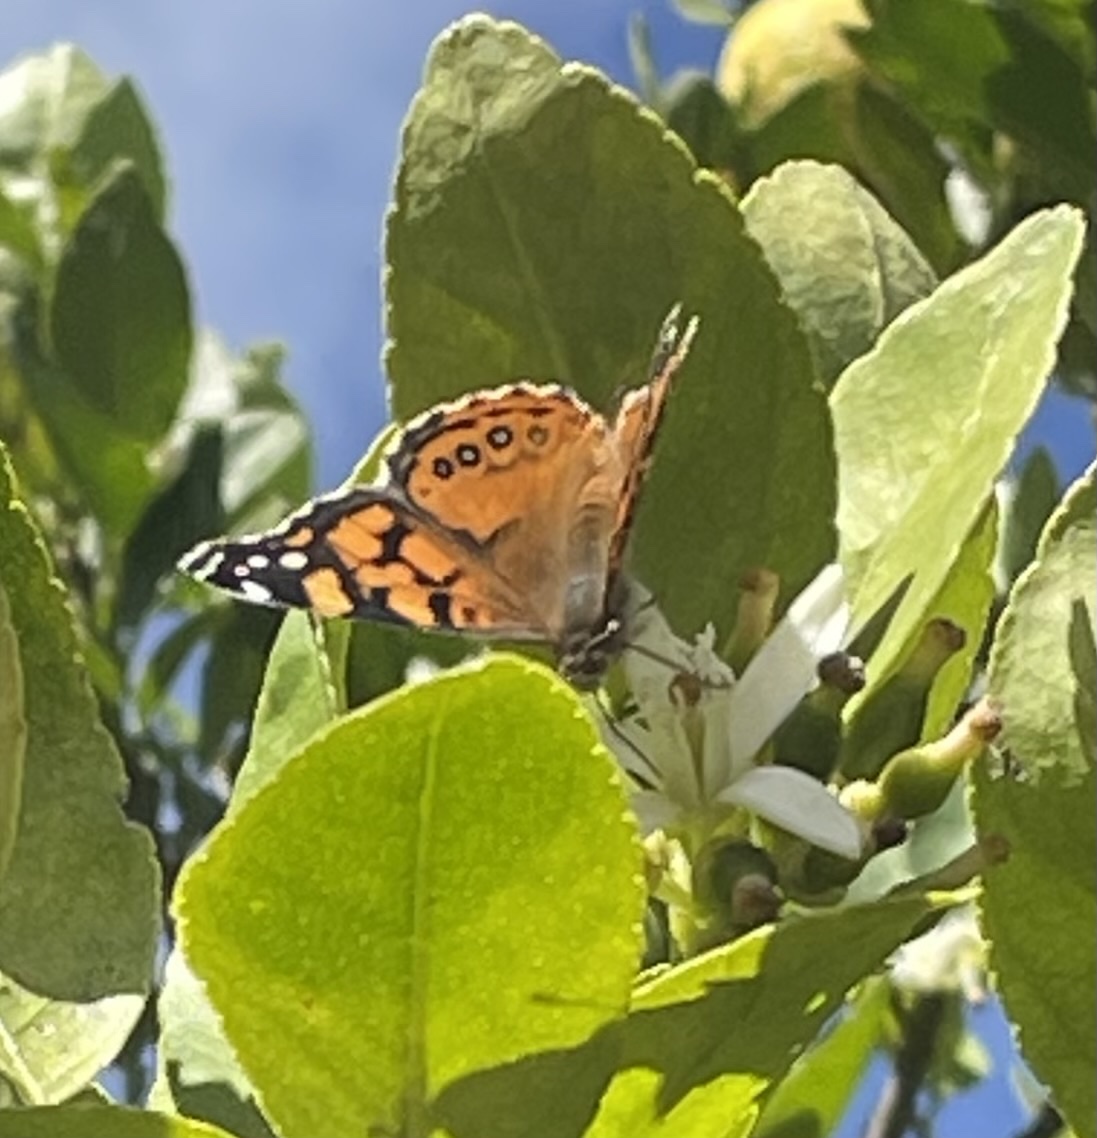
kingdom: Animalia
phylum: Arthropoda
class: Insecta
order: Lepidoptera
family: Nymphalidae
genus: Vanessa
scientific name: Vanessa annabella
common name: West coast lady
